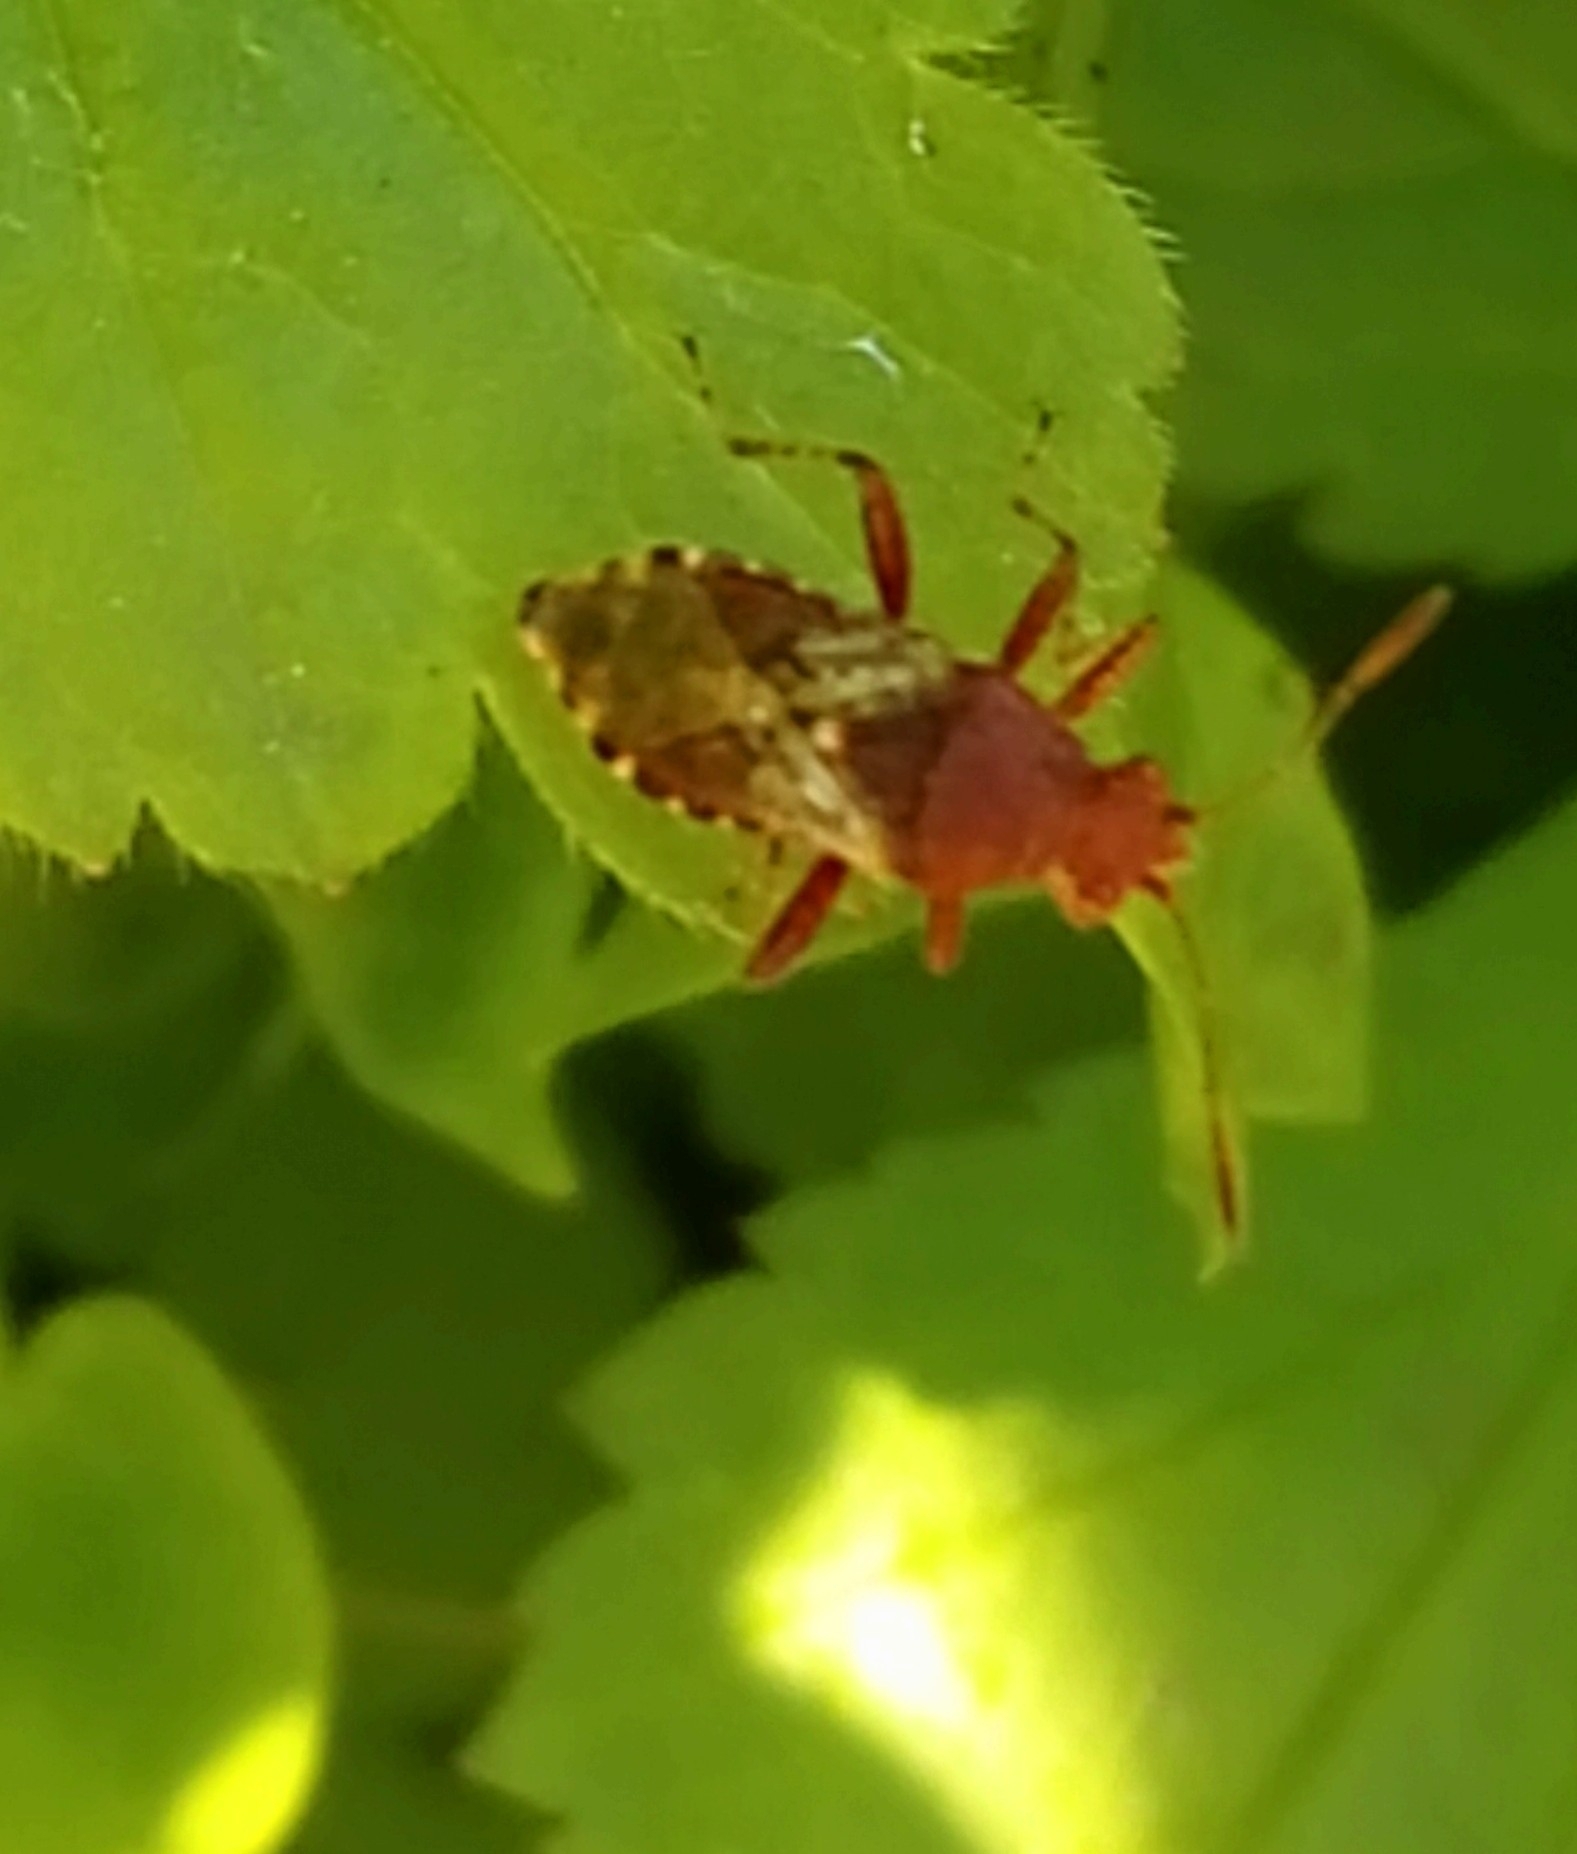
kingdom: Animalia
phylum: Arthropoda
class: Insecta
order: Hemiptera
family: Rhopalidae
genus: Rhopalus
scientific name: Rhopalus subrufus
